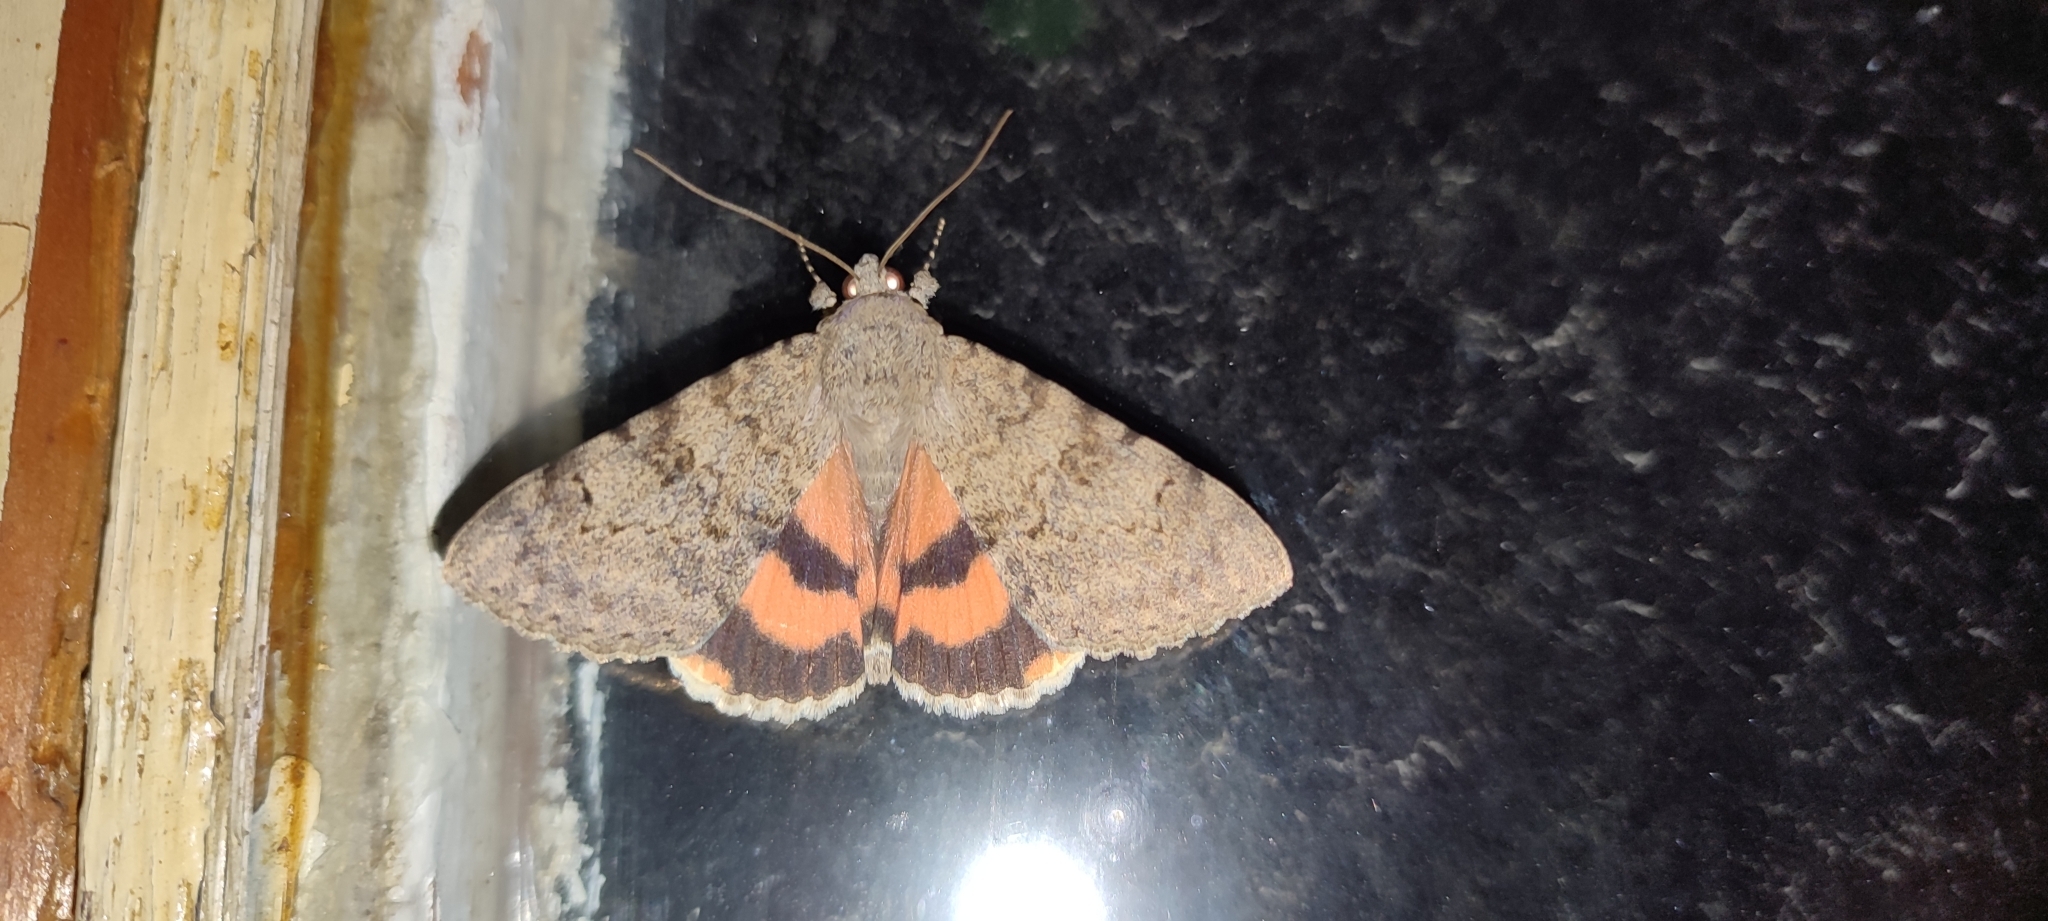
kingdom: Animalia
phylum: Arthropoda
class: Insecta
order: Lepidoptera
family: Erebidae
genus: Catocala
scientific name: Catocala puerpera
